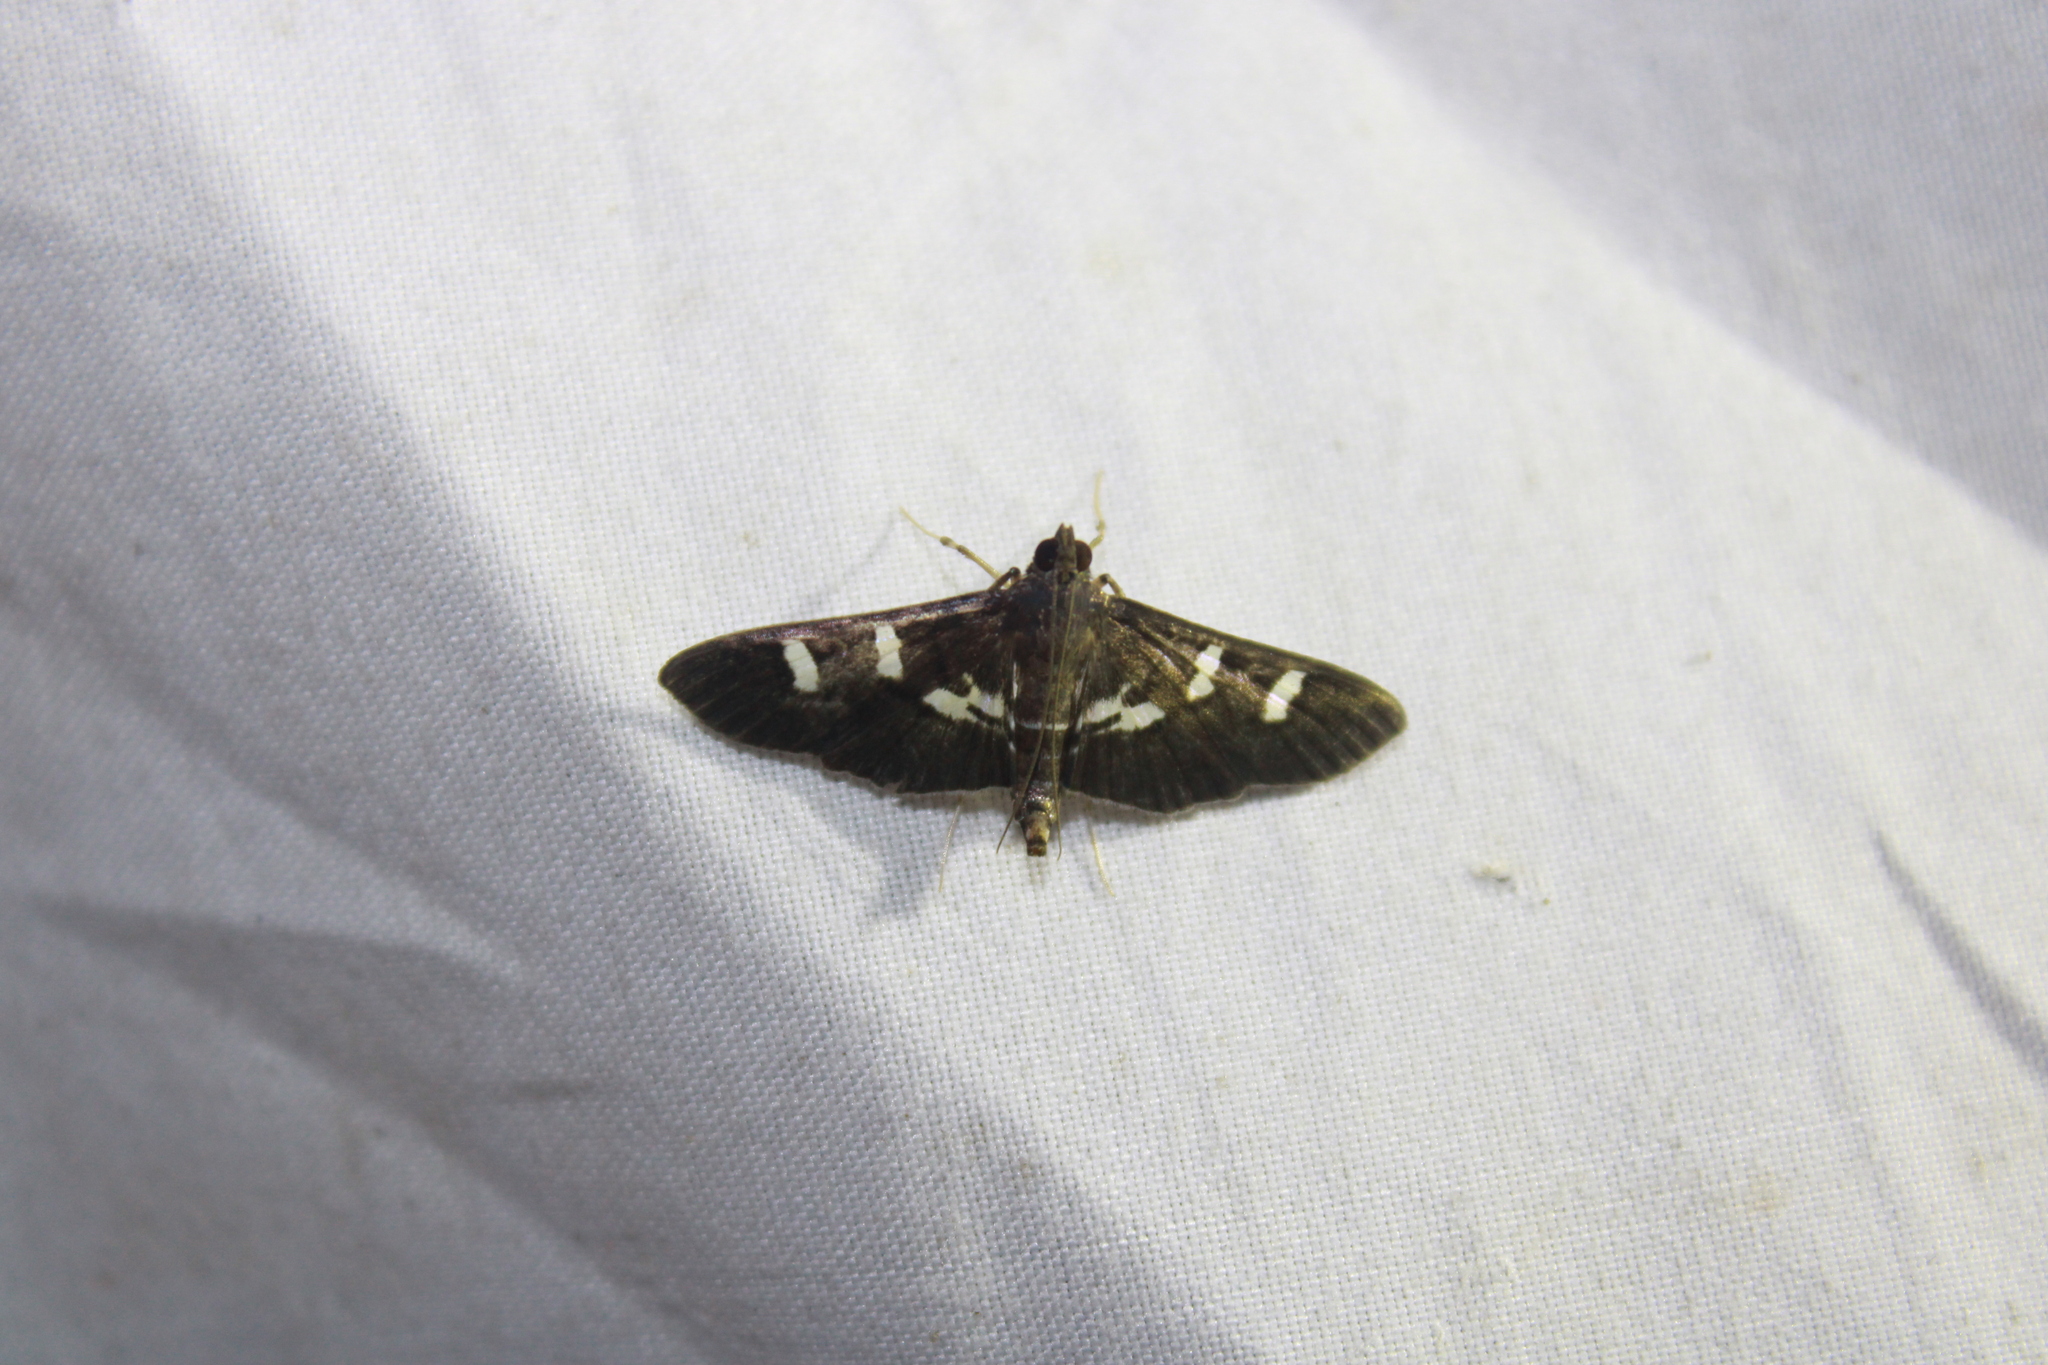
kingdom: Animalia
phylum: Arthropoda
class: Insecta
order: Lepidoptera
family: Crambidae
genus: Desmia
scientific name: Desmia deploralis
